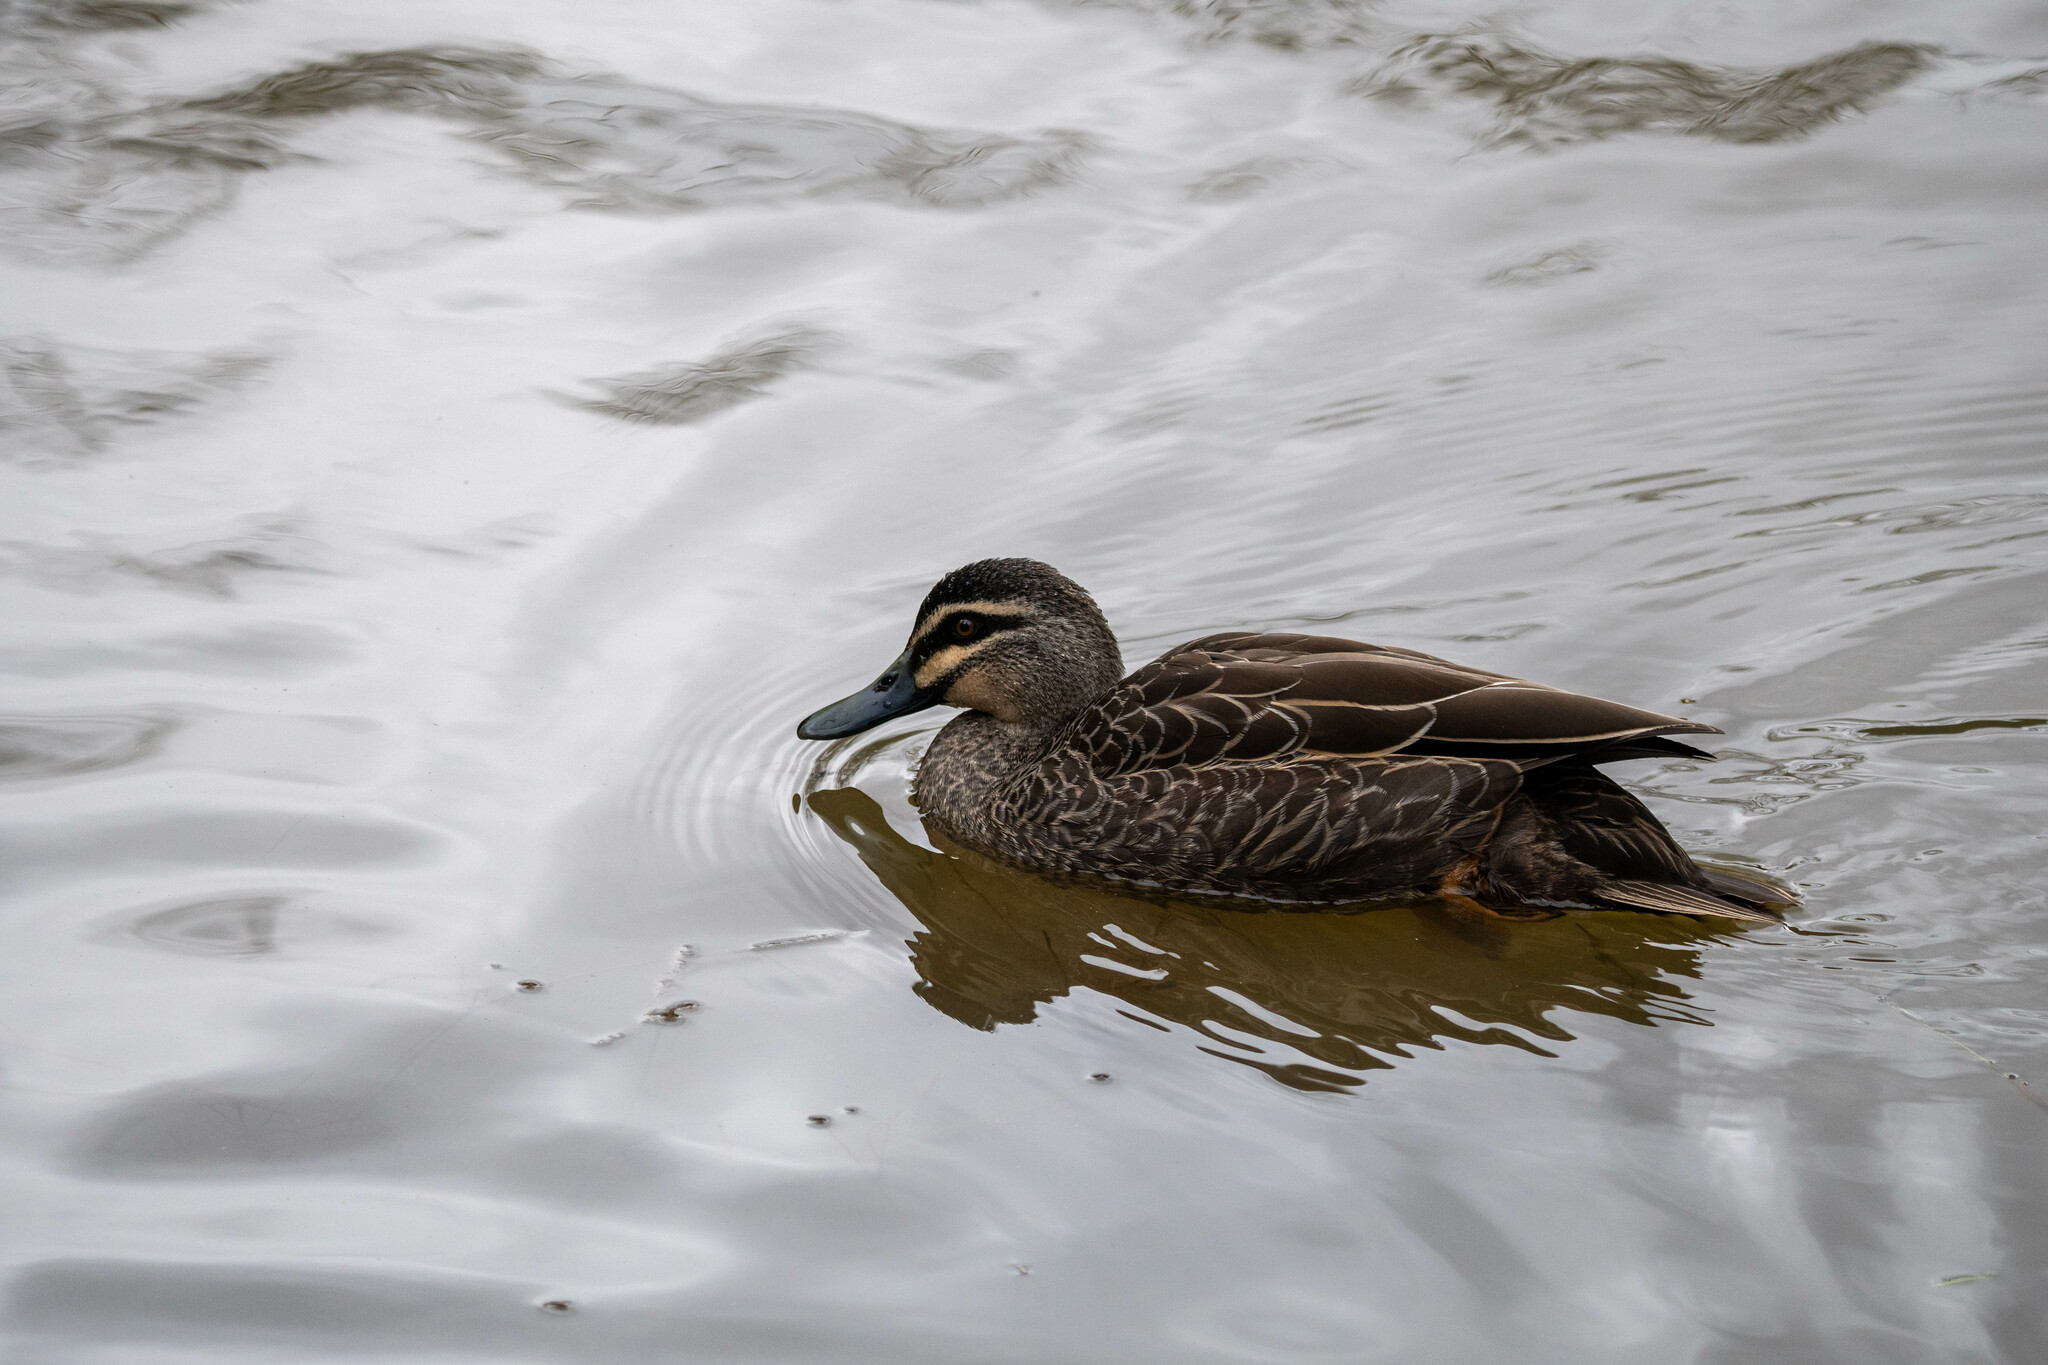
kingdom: Animalia
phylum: Chordata
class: Aves
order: Anseriformes
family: Anatidae
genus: Anas
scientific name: Anas superciliosa
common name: Pacific black duck
